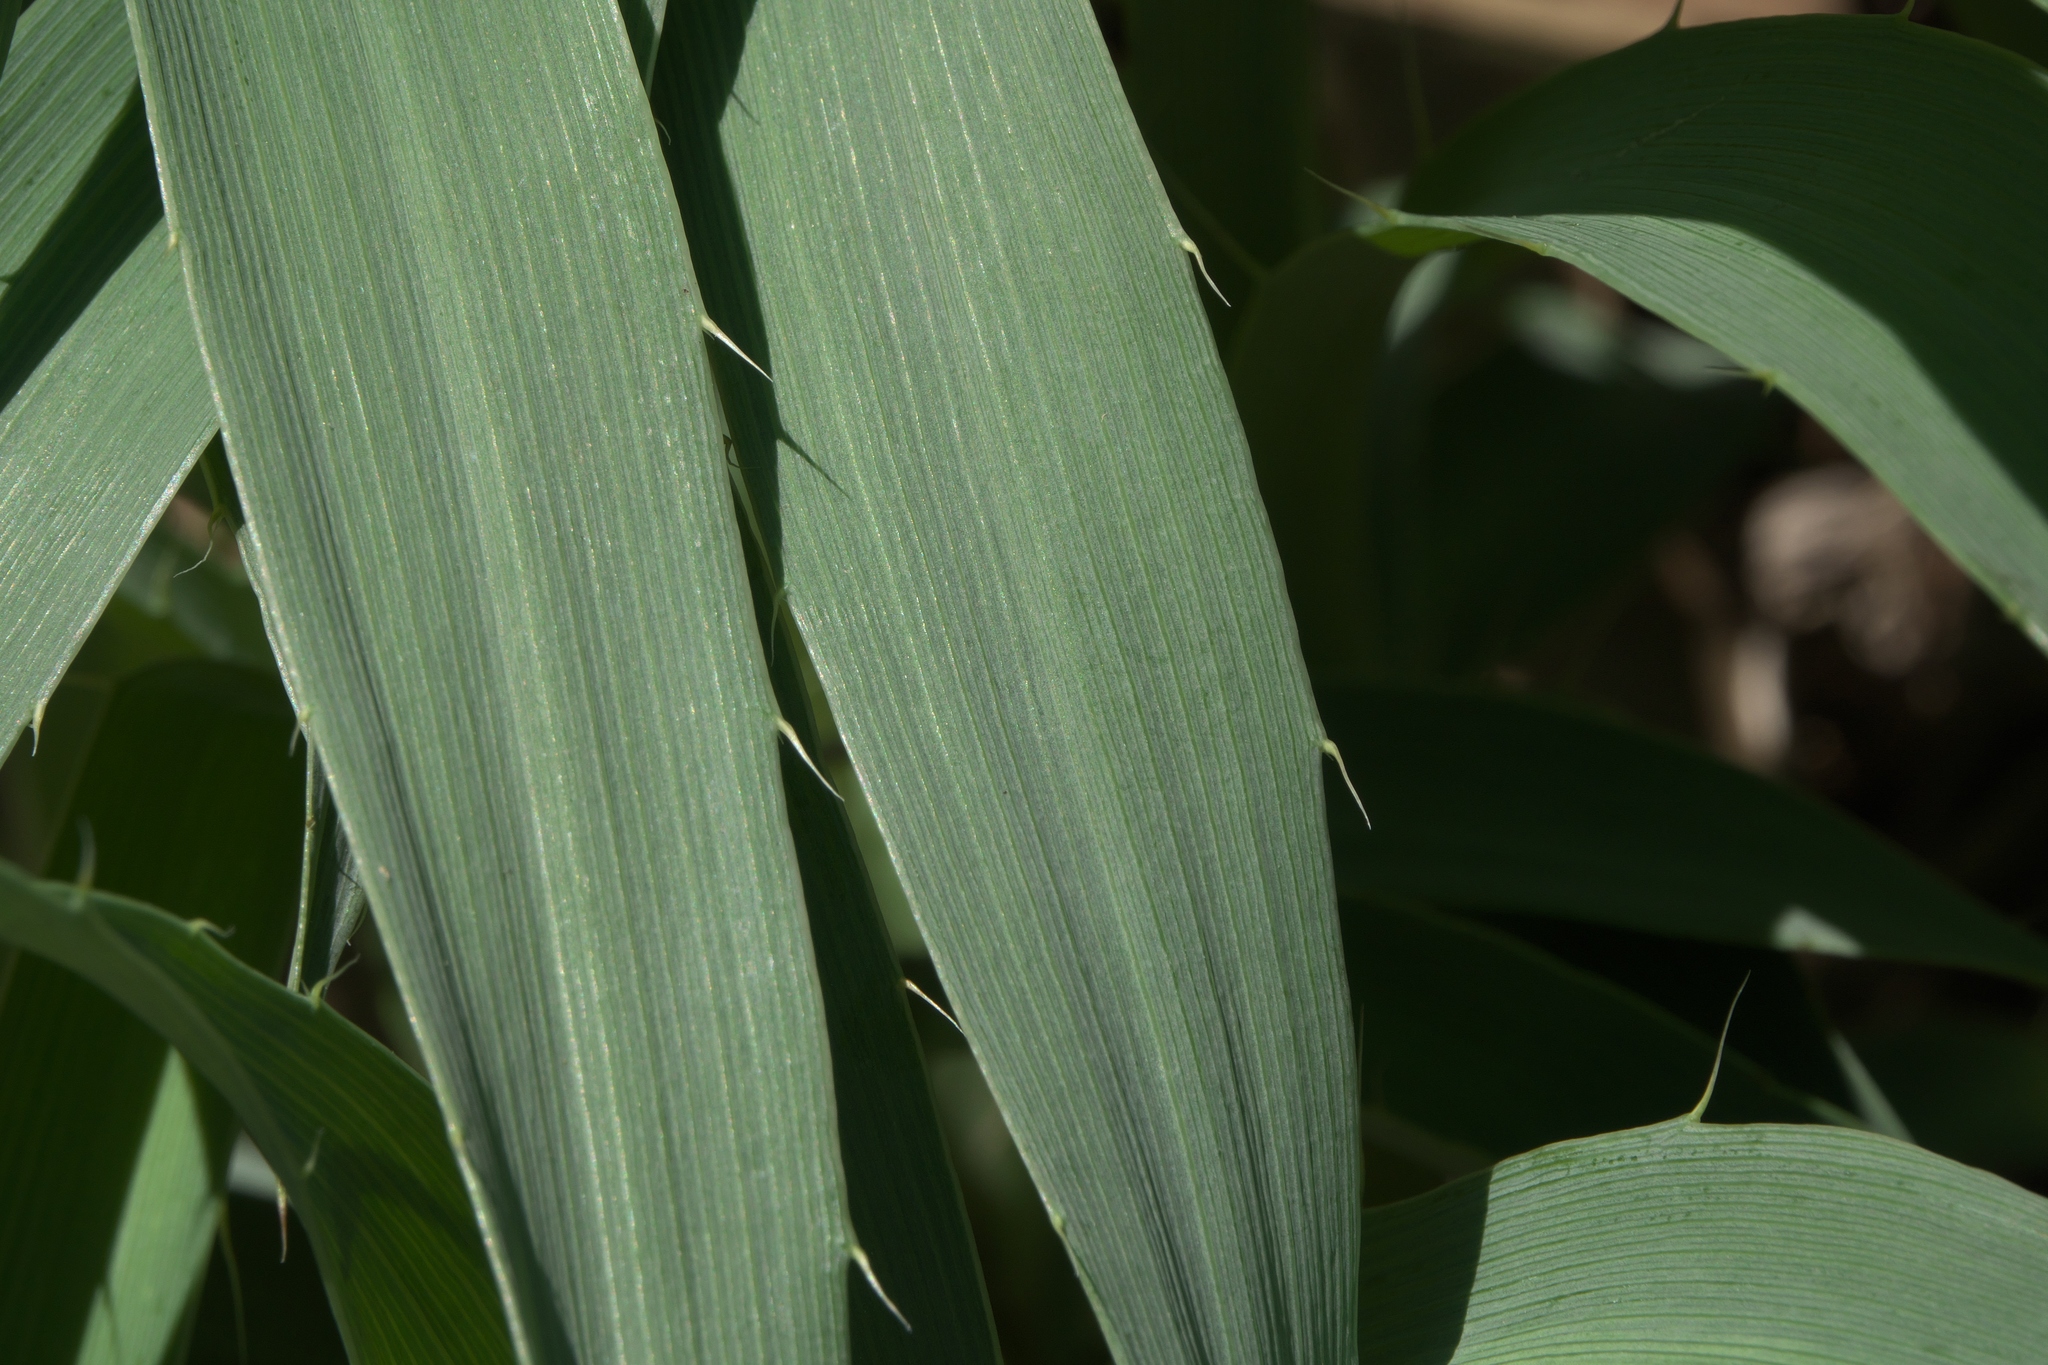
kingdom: Plantae
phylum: Tracheophyta
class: Magnoliopsida
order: Apiales
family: Apiaceae
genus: Eryngium
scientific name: Eryngium yuccifolium
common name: Button eryngo
